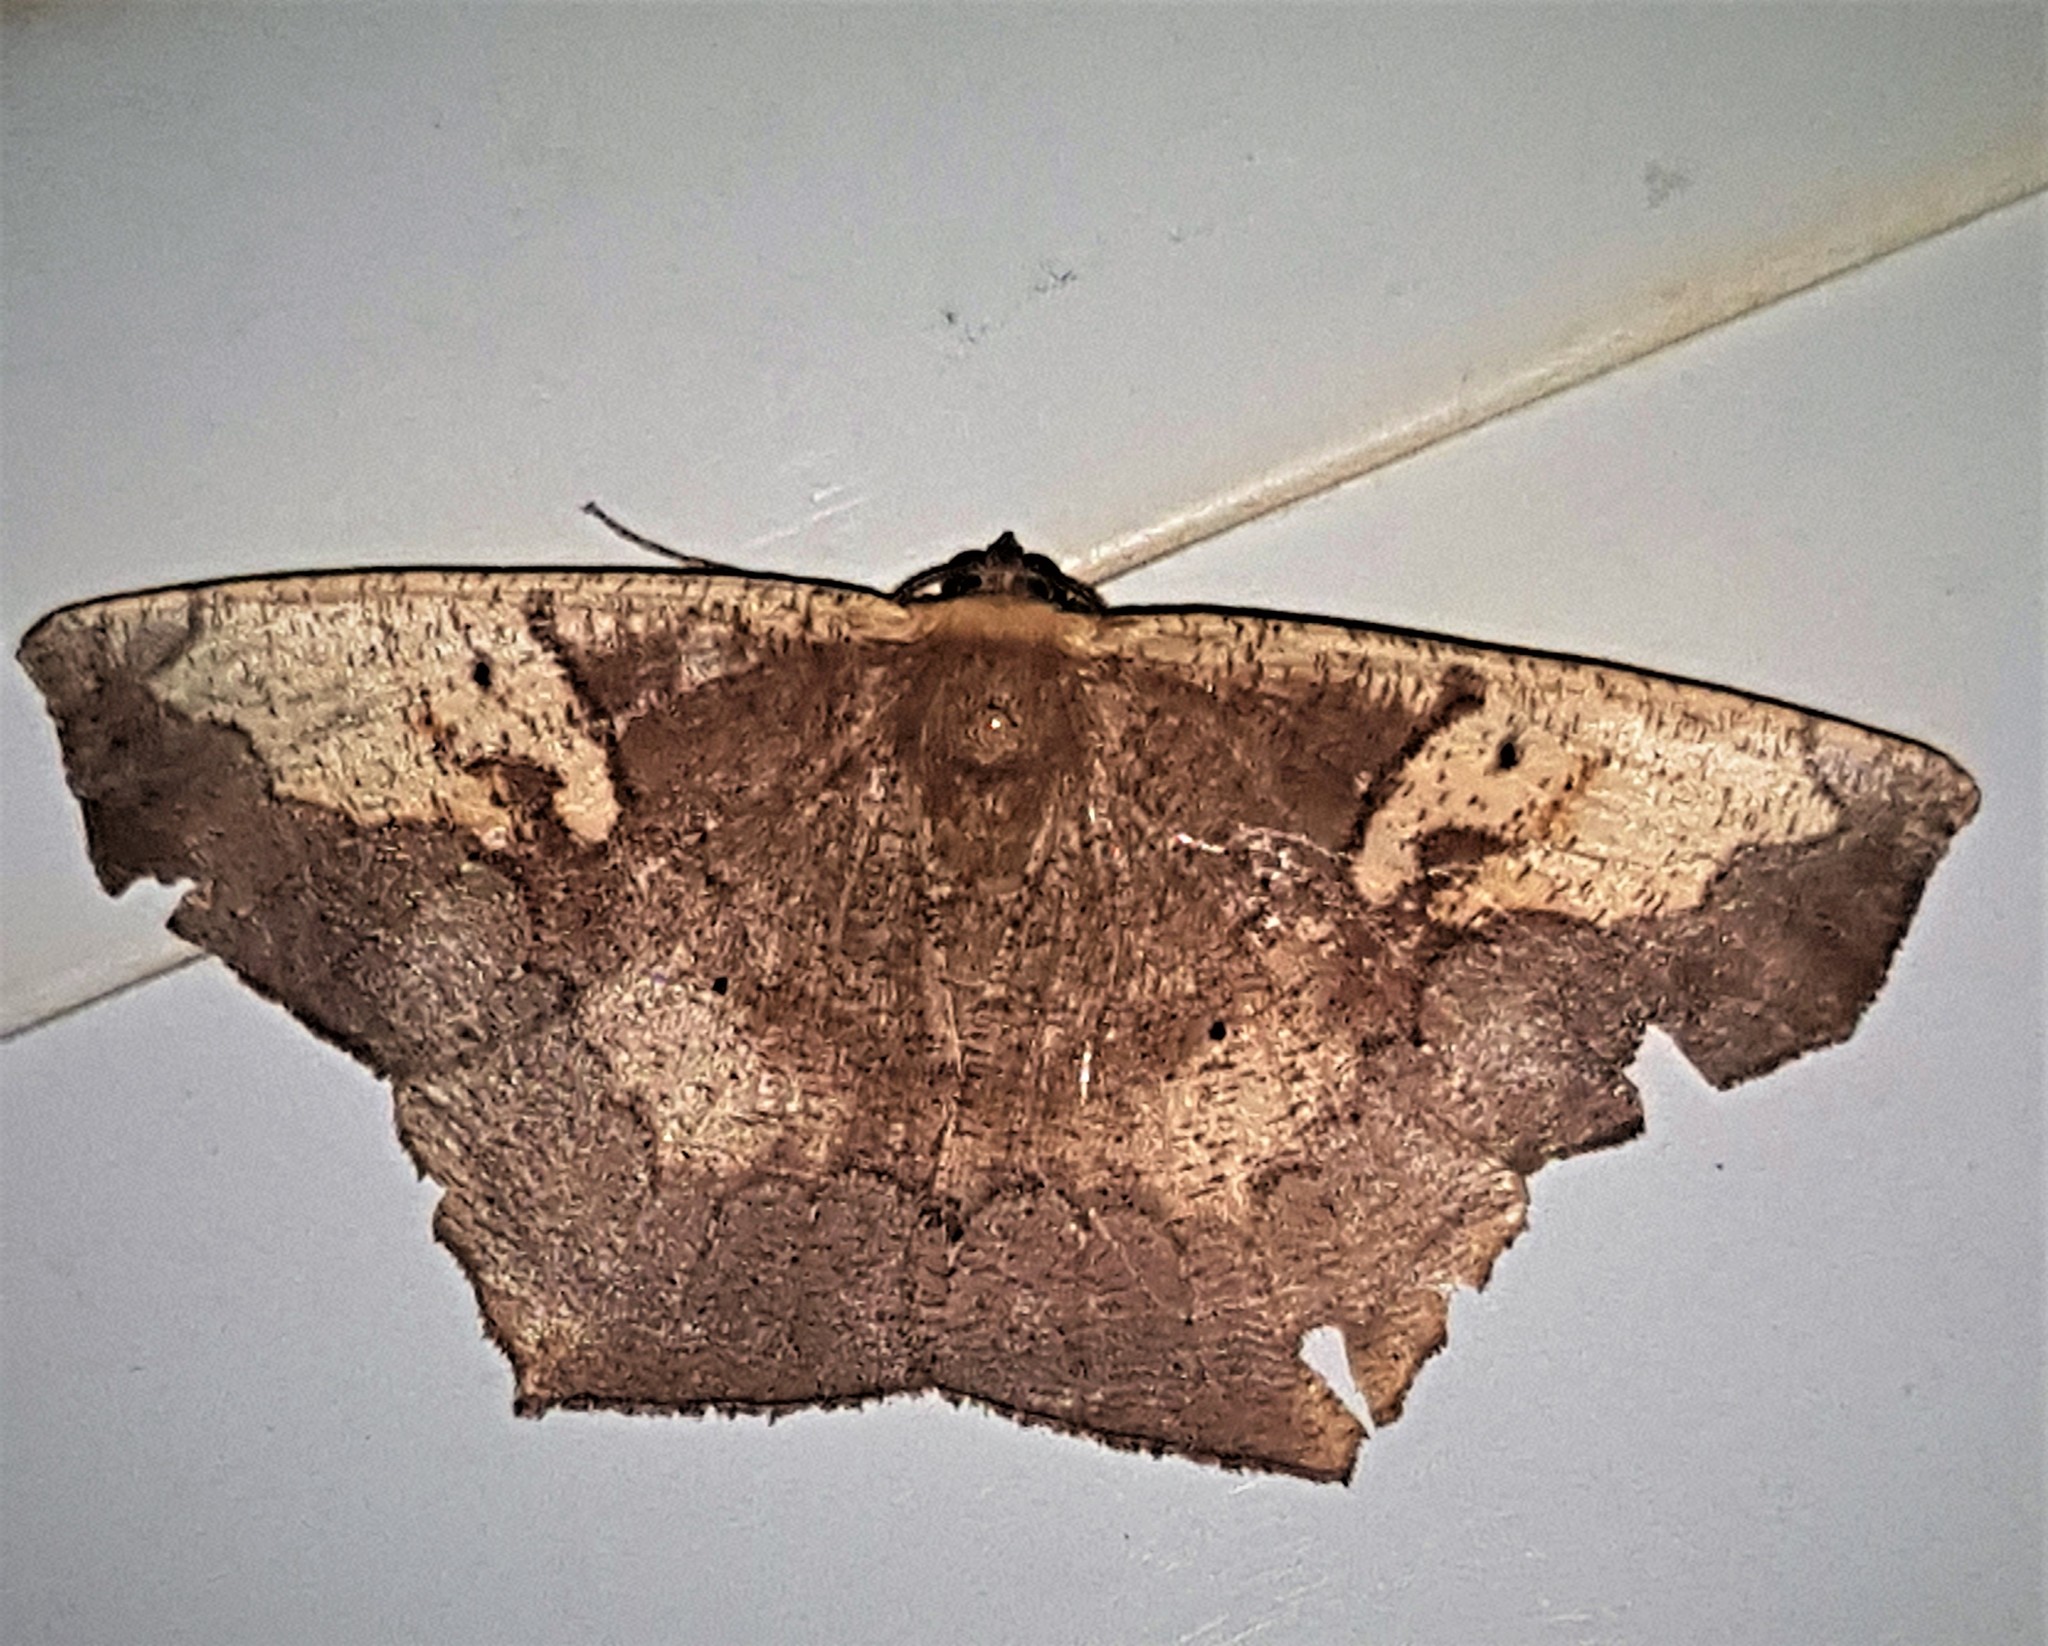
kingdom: Animalia
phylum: Arthropoda
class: Insecta
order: Lepidoptera
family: Geometridae
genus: Paragonia
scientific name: Paragonia tasima
